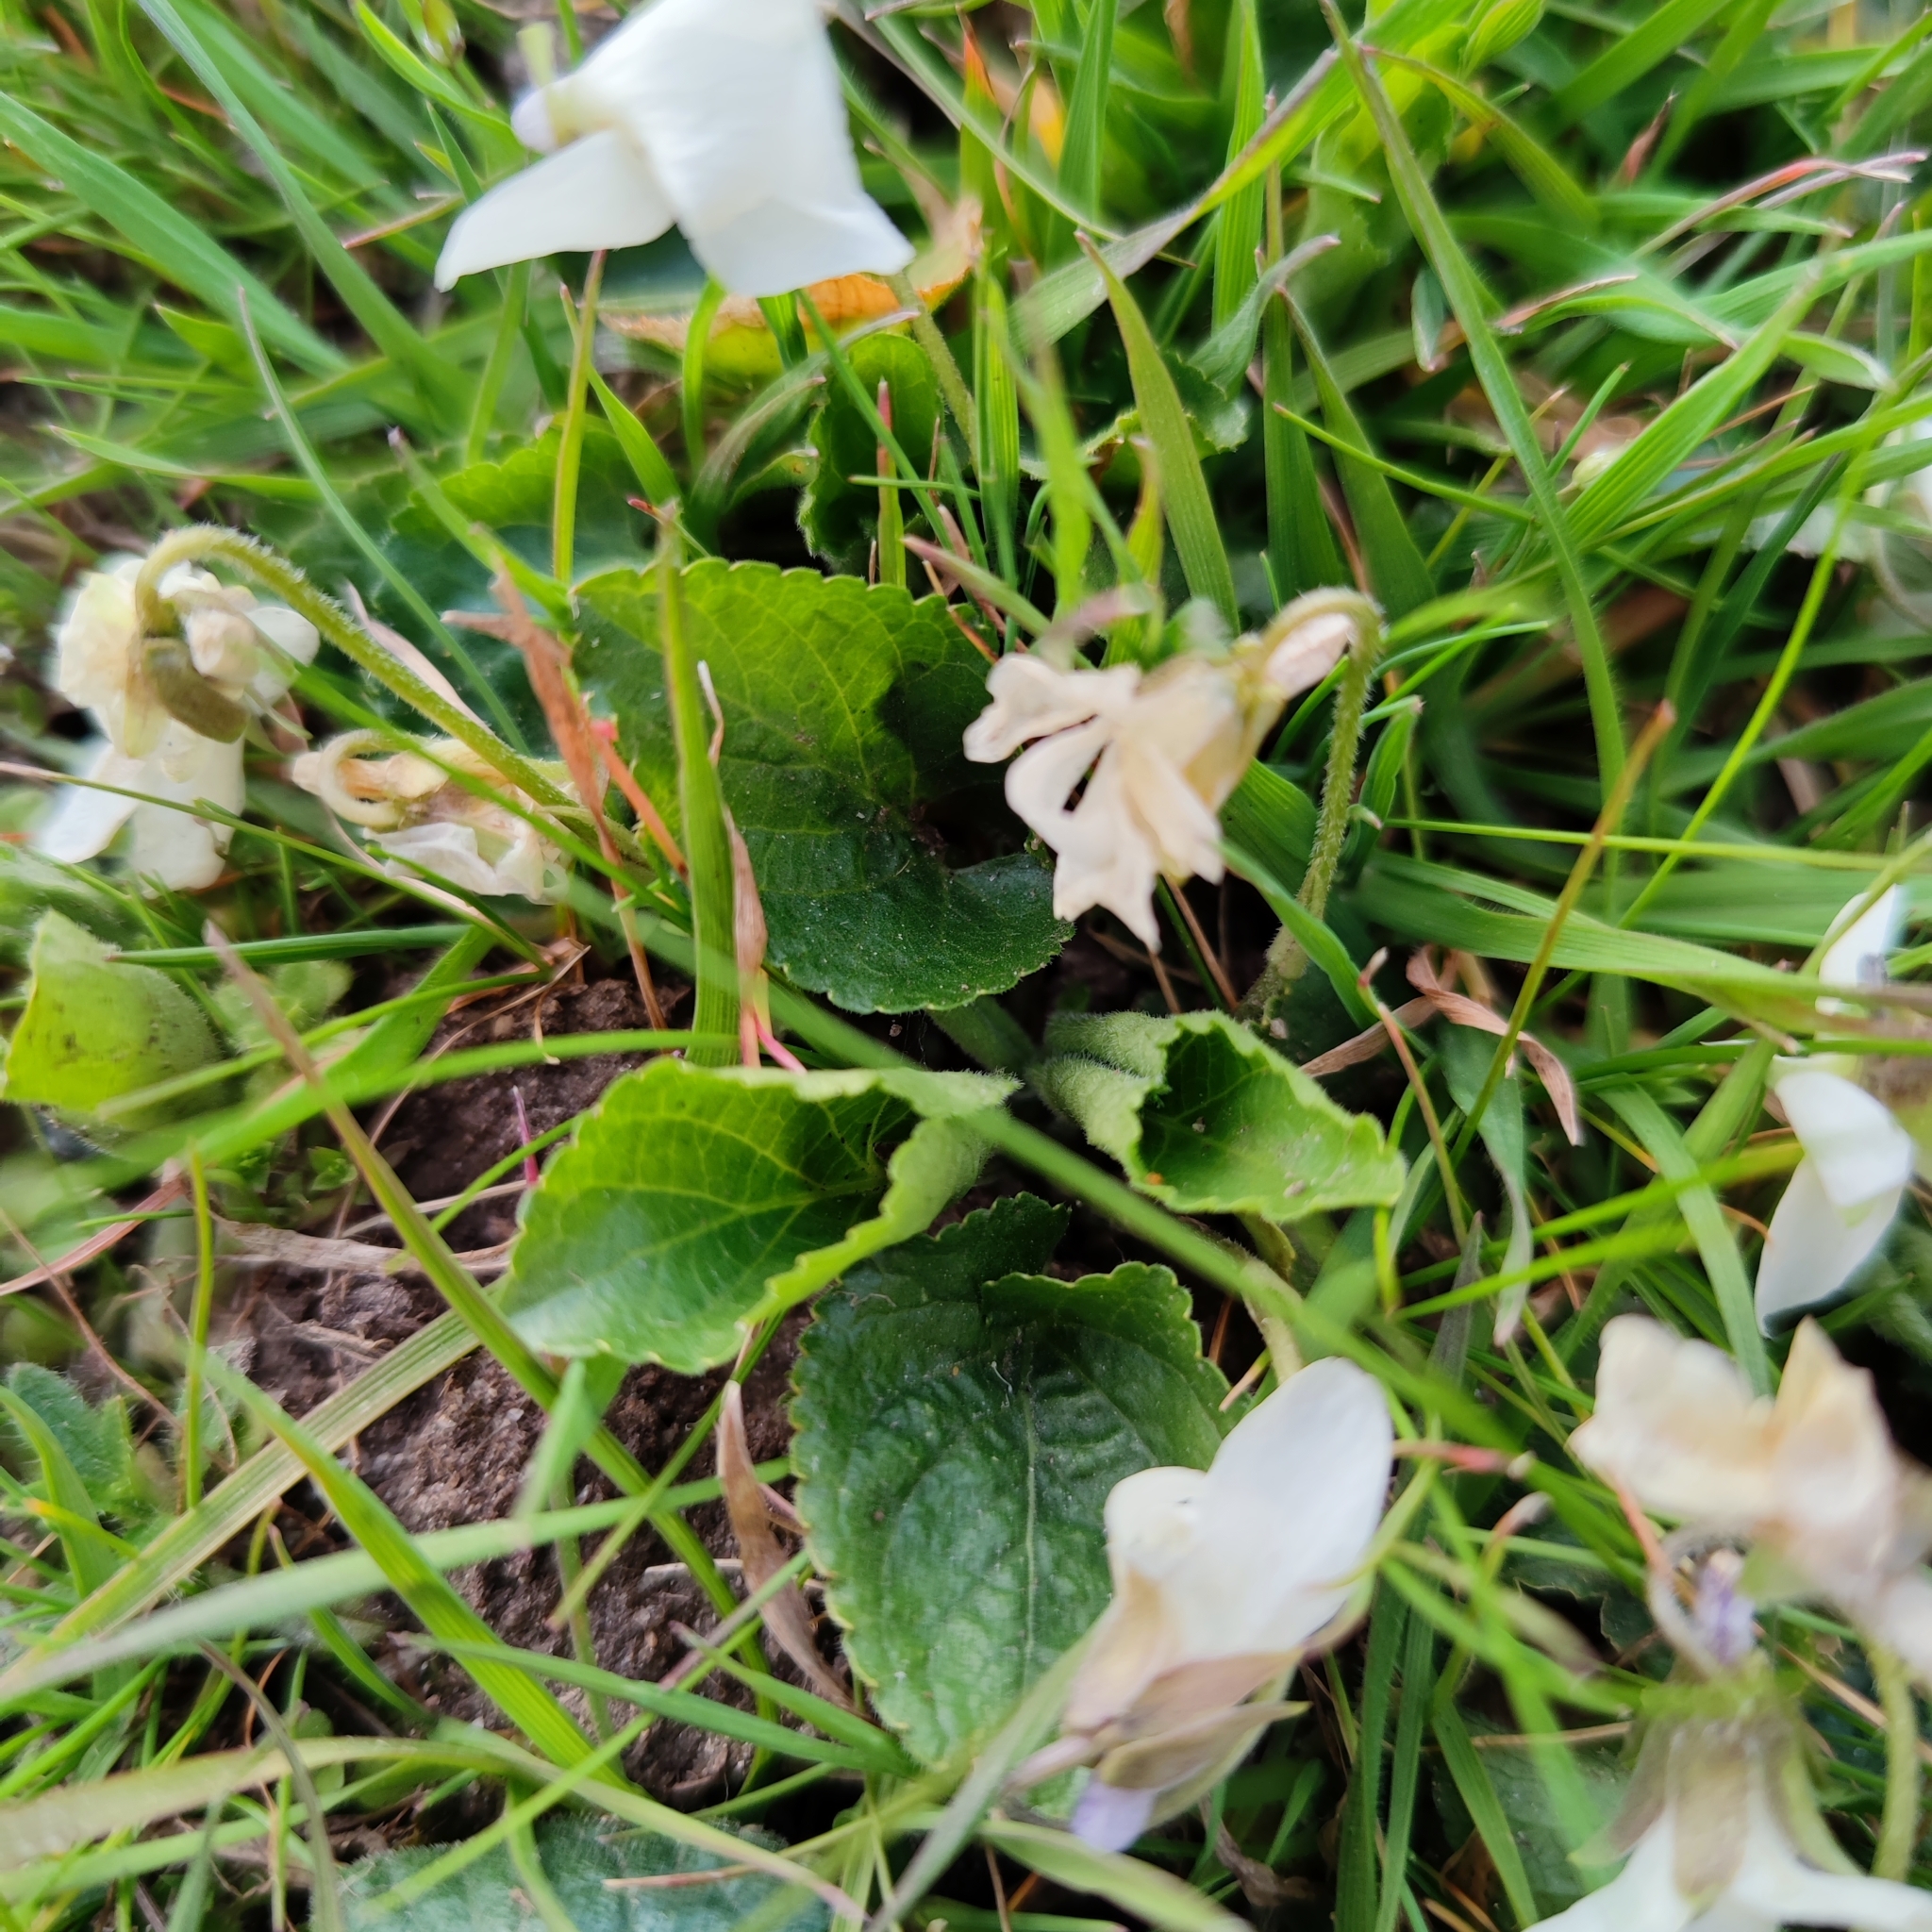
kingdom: Plantae
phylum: Tracheophyta
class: Magnoliopsida
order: Malpighiales
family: Violaceae
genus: Viola
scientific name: Viola alba
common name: White violet
